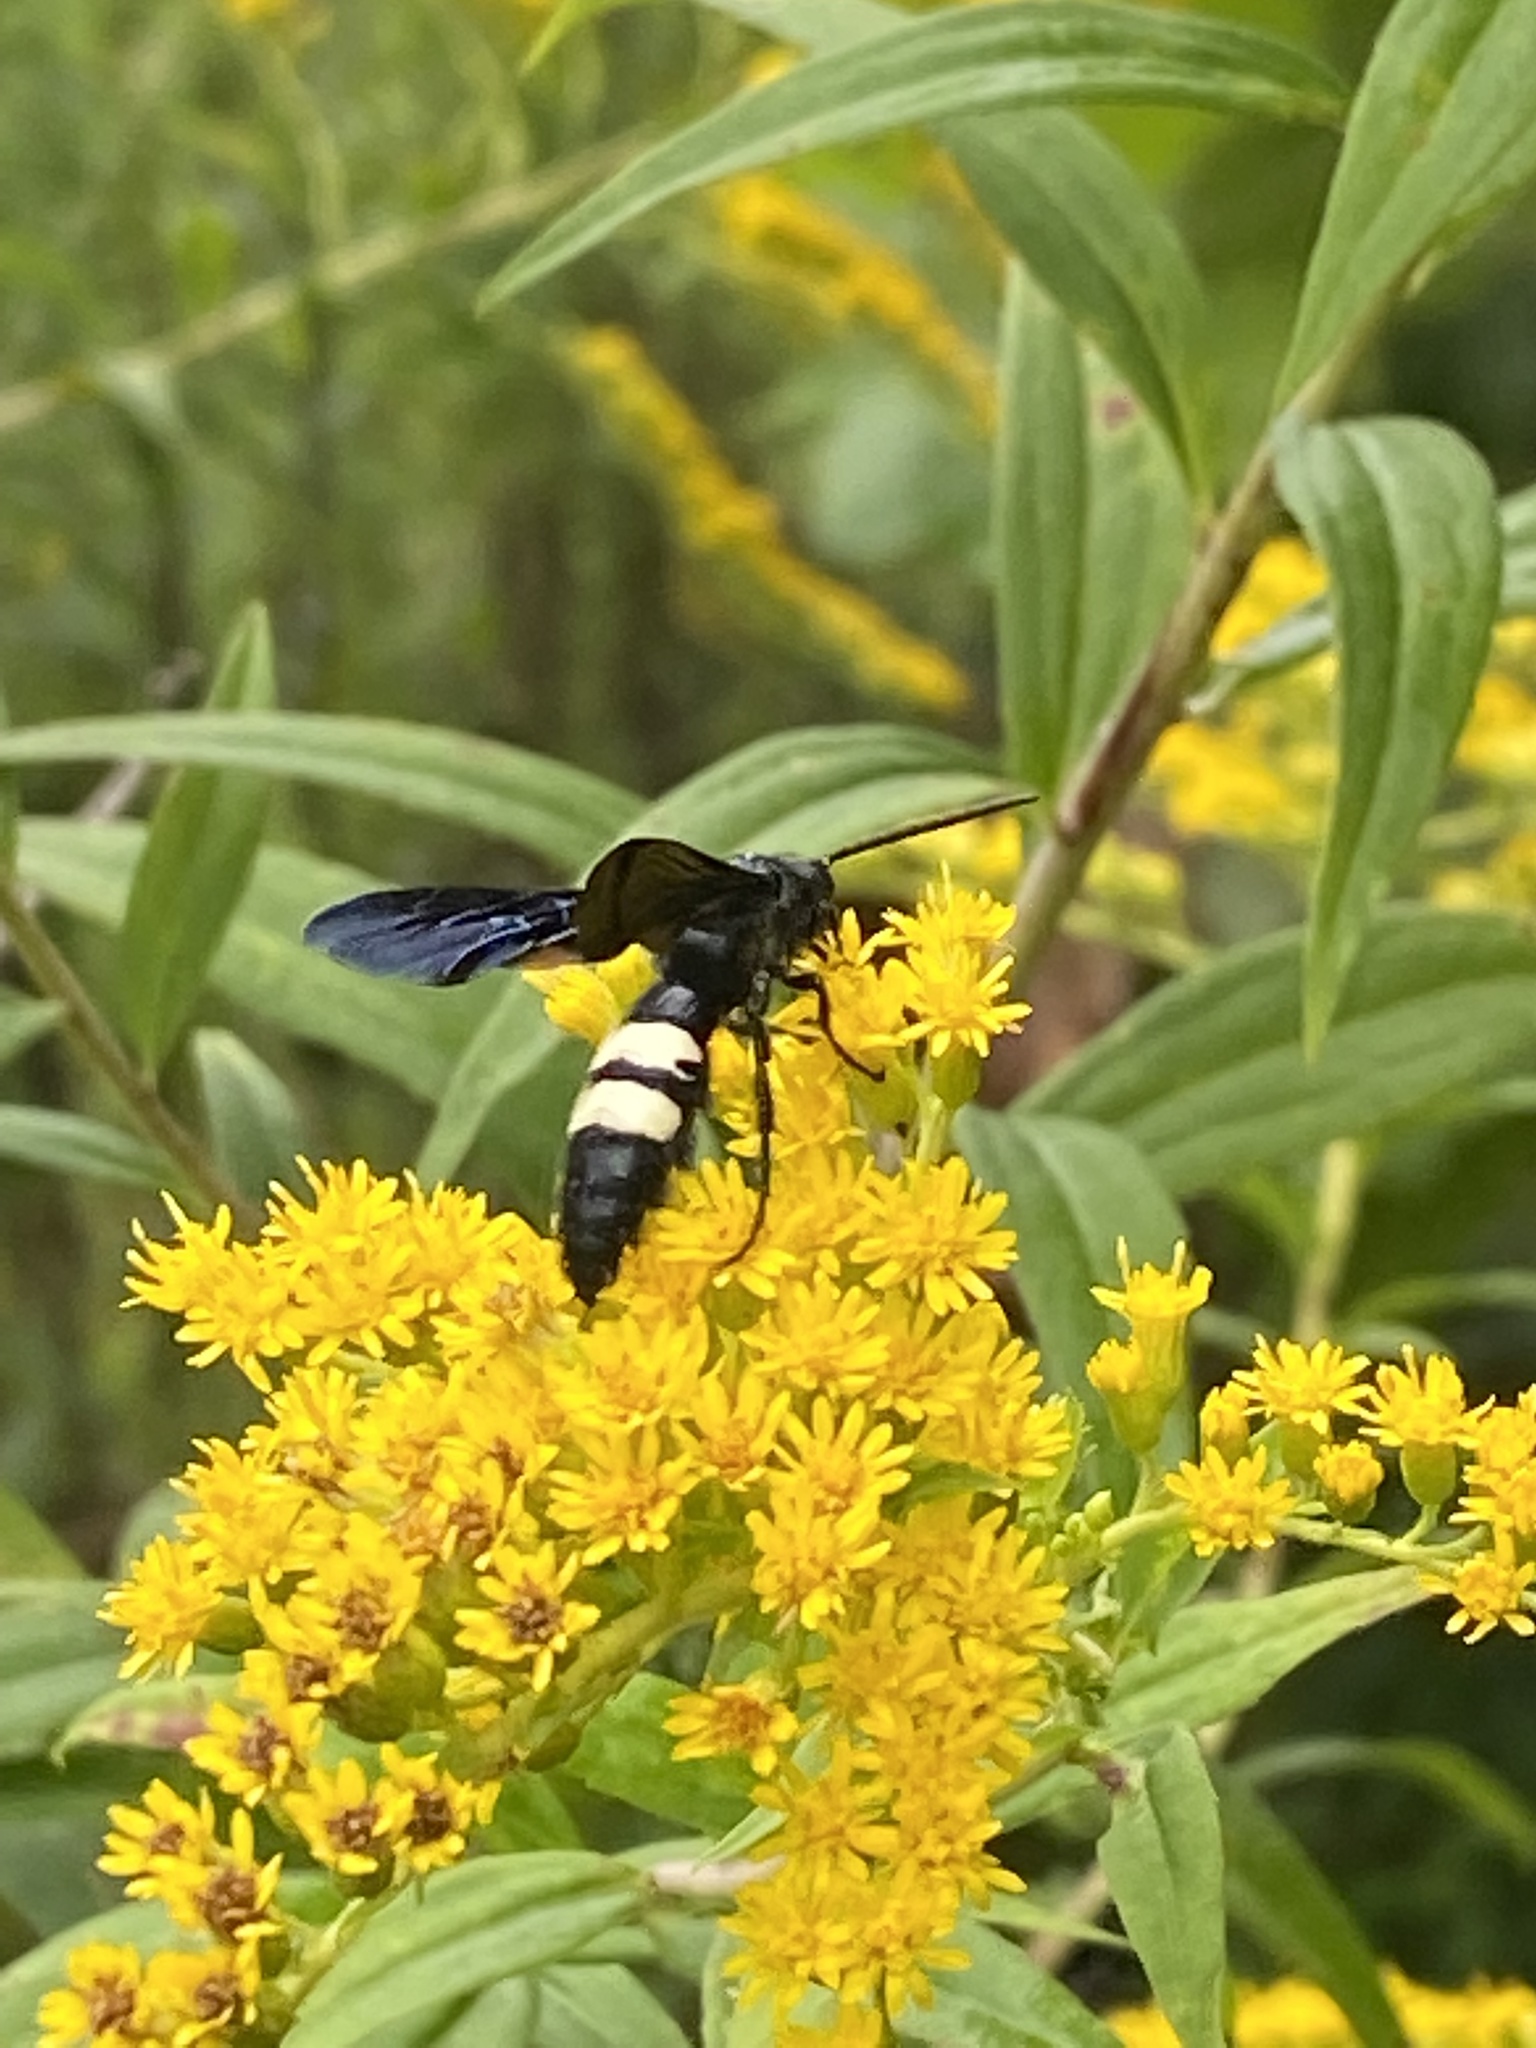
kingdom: Animalia
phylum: Arthropoda
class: Insecta
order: Hymenoptera
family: Scoliidae
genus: Scolia
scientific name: Scolia bicincta
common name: Double-banded scoliid wasp
